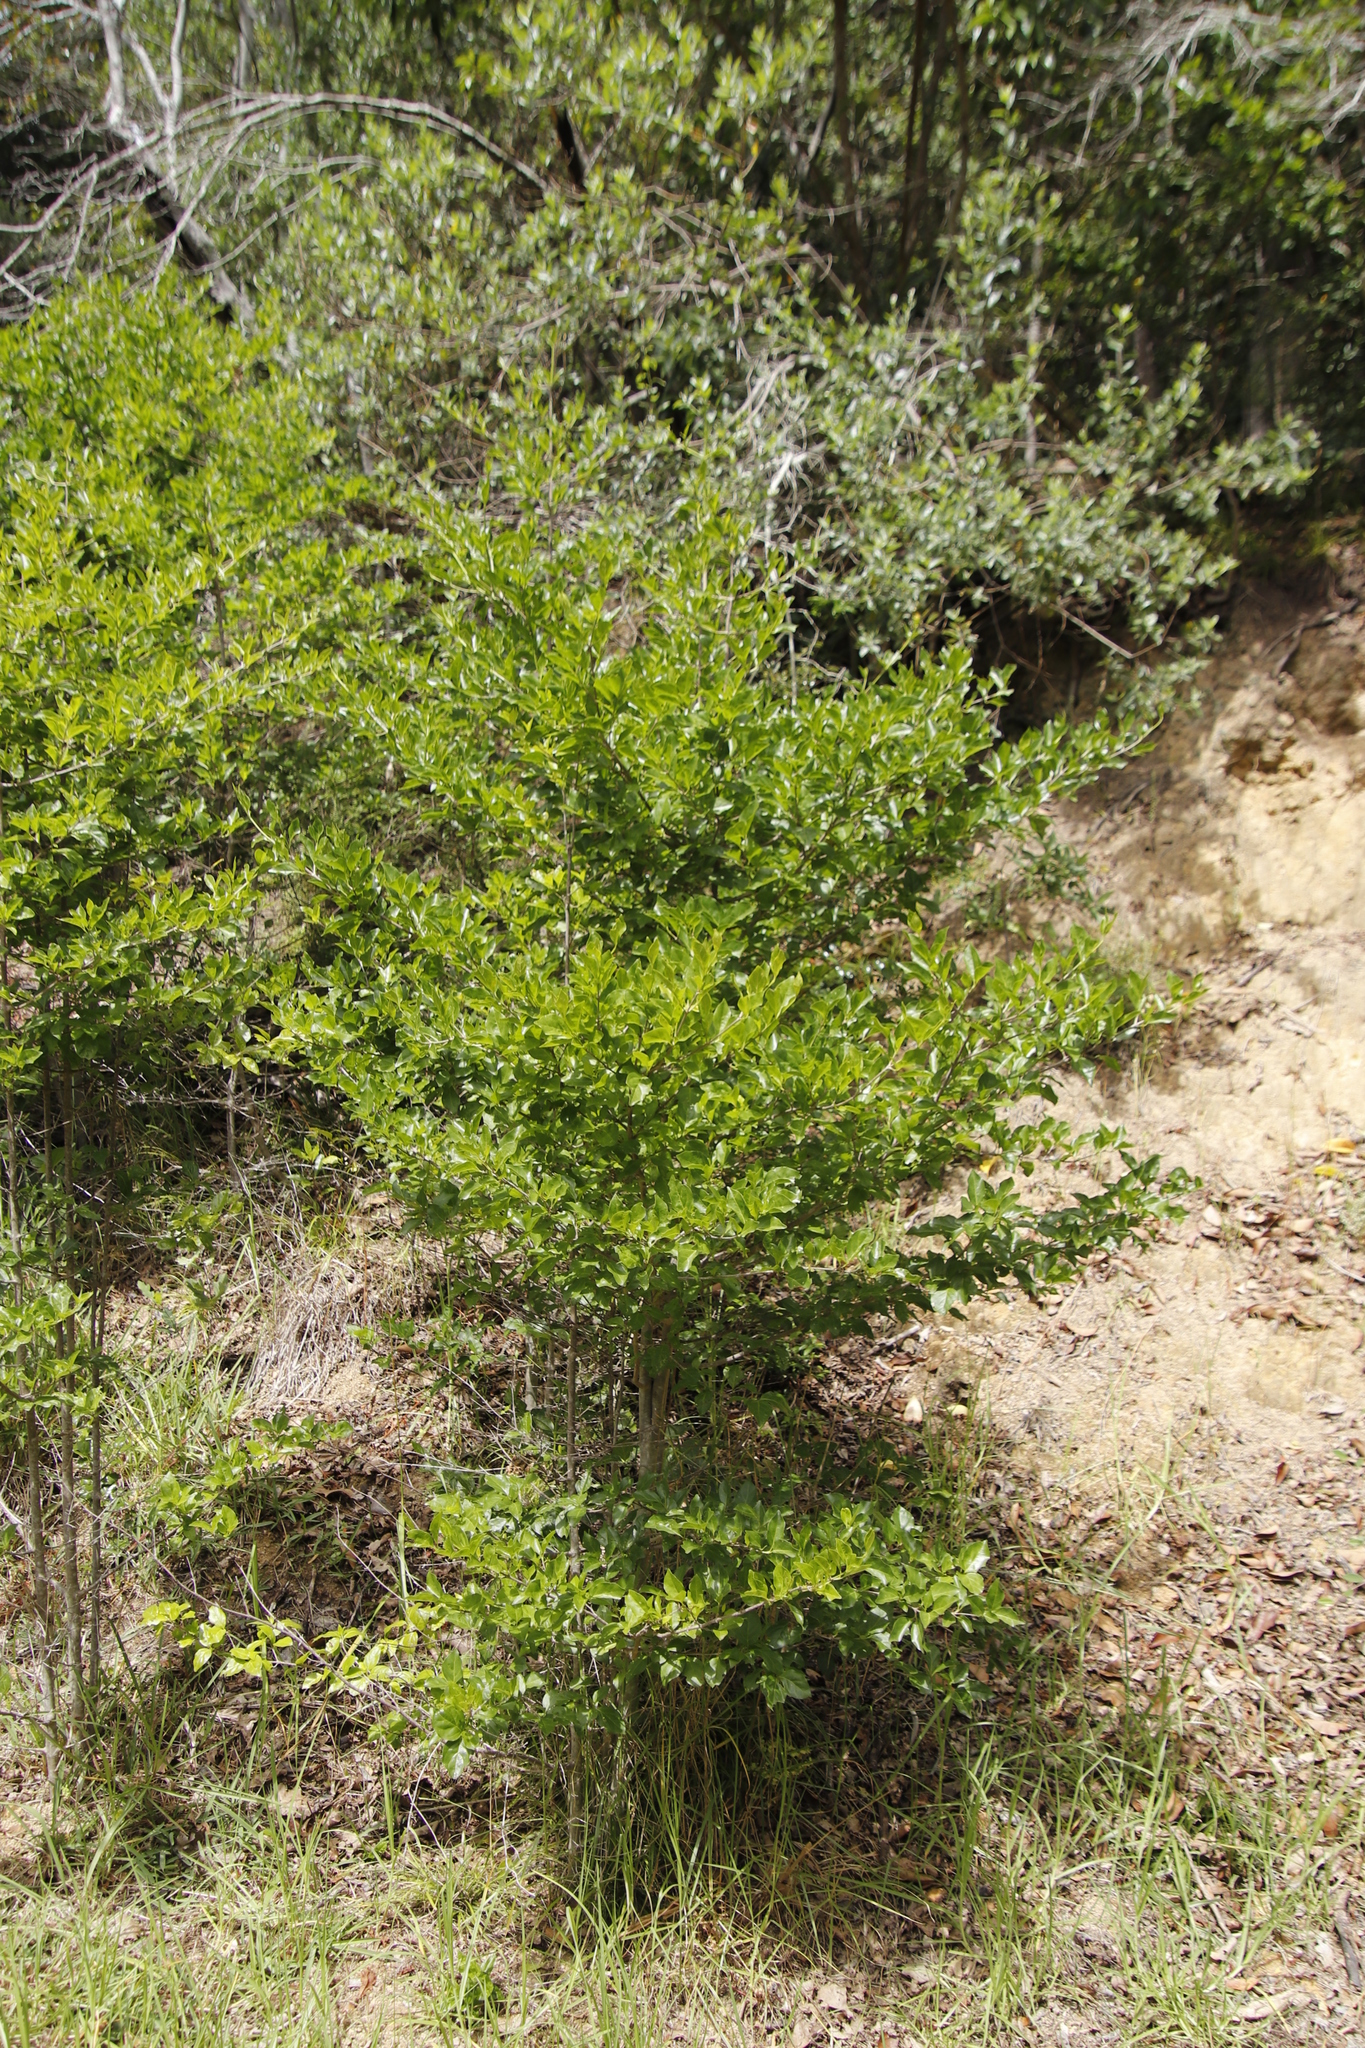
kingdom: Plantae
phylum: Tracheophyta
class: Magnoliopsida
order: Gentianales
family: Rubiaceae
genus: Afrocanthium
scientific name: Afrocanthium mundianum
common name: Rock-alder
